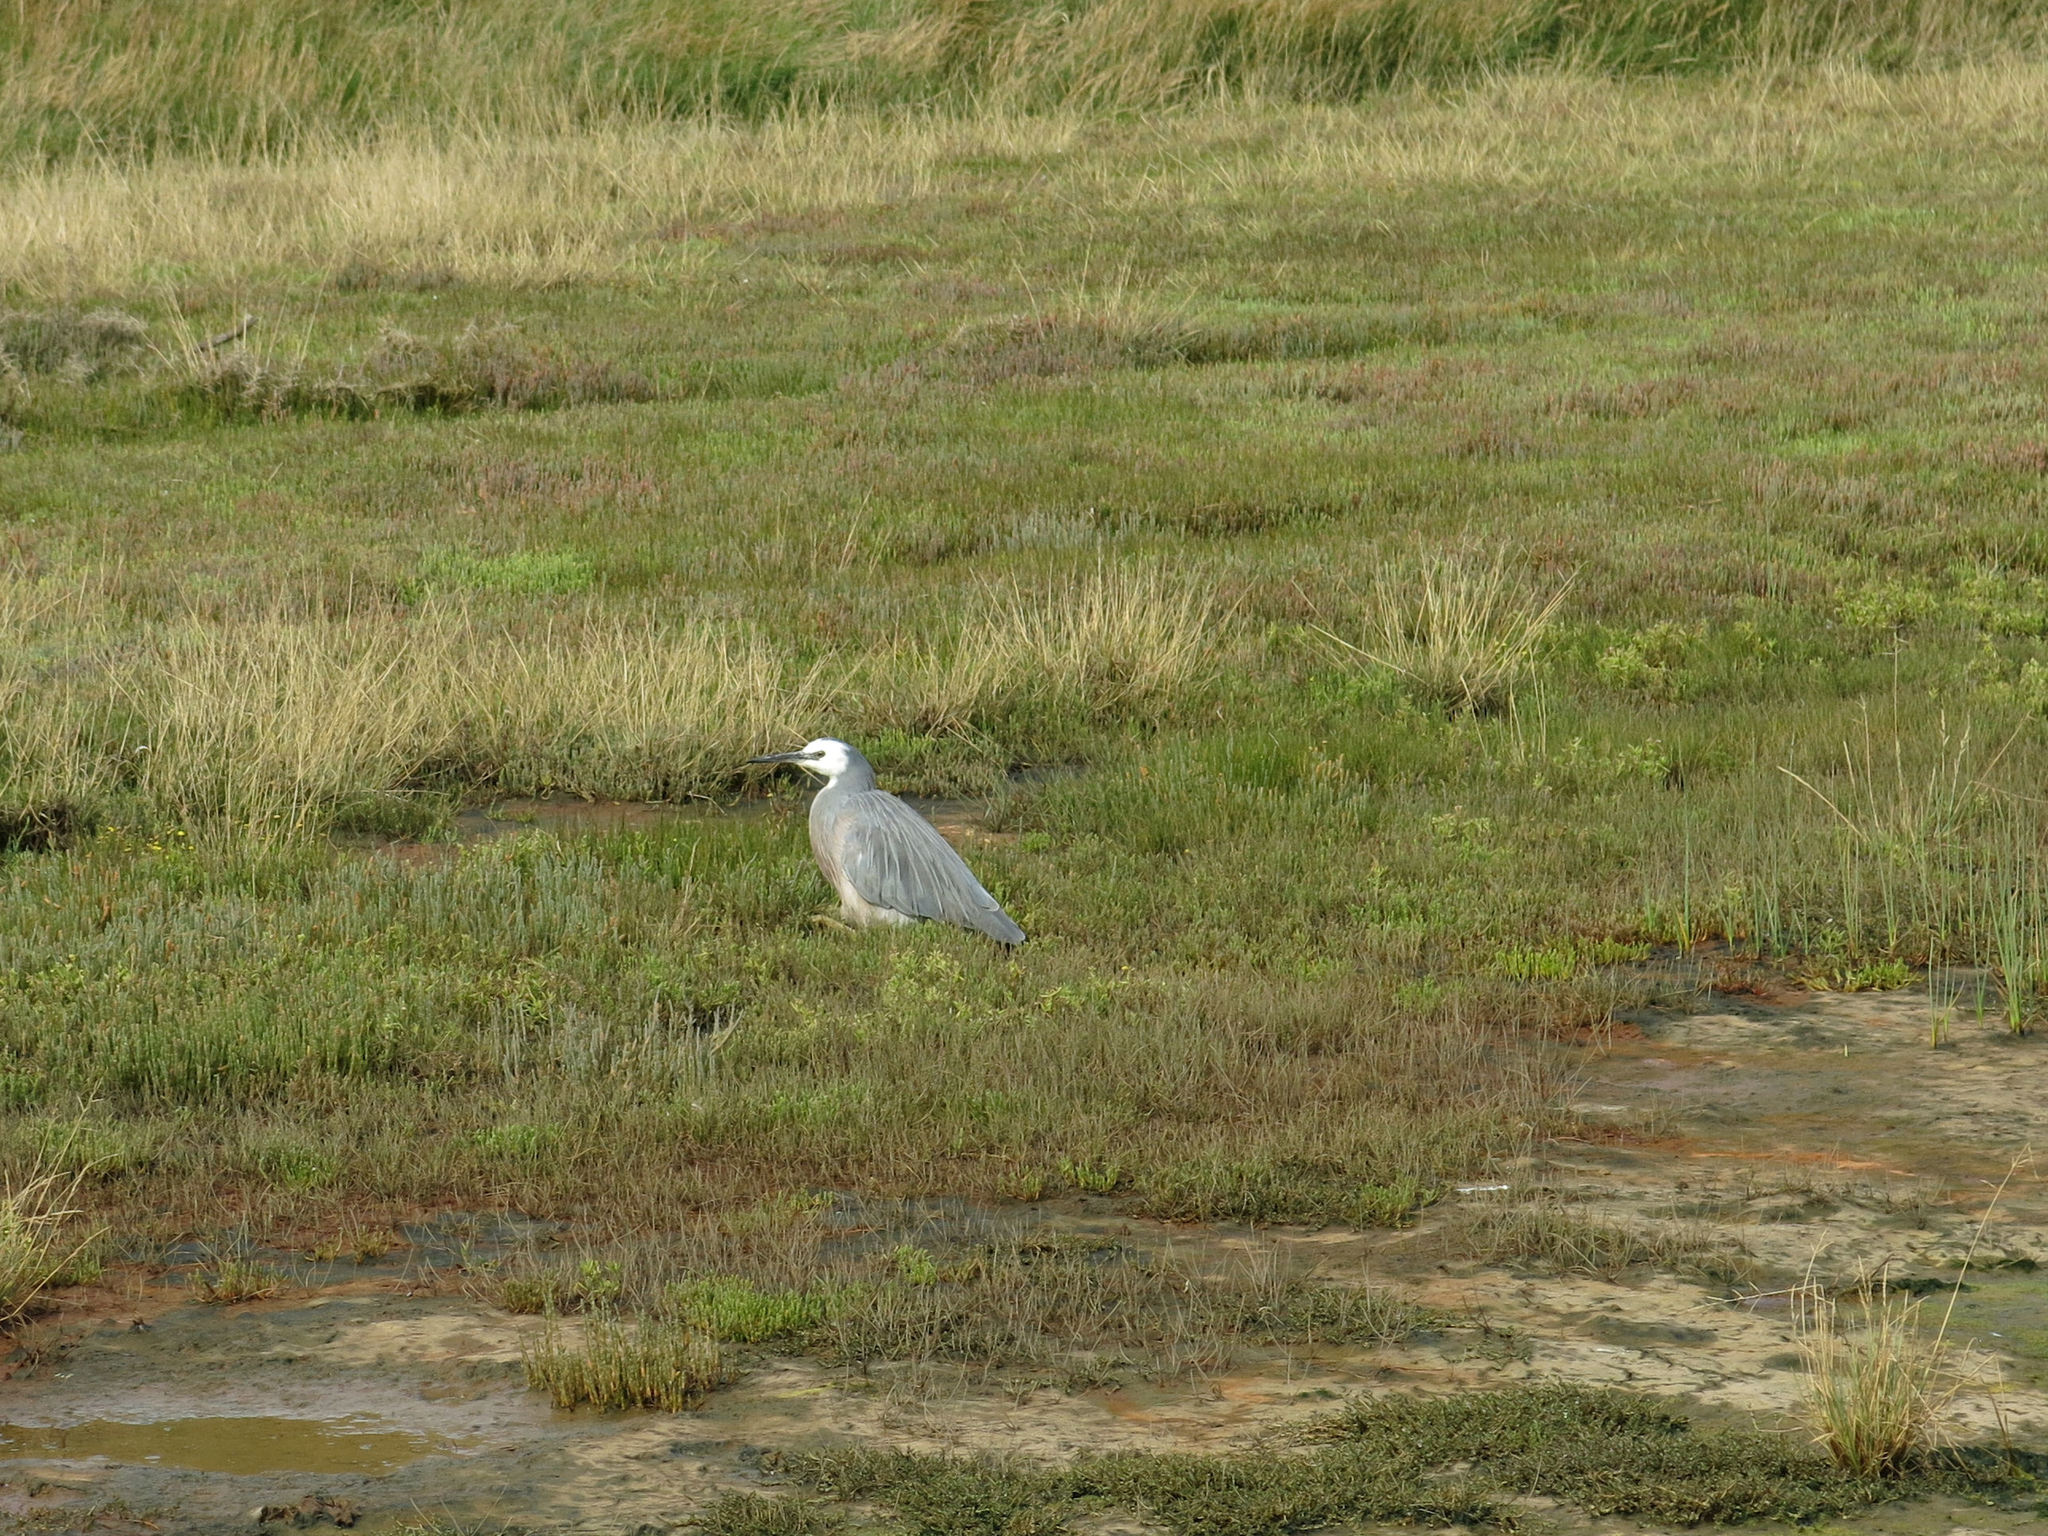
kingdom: Animalia
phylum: Chordata
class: Aves
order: Pelecaniformes
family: Ardeidae
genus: Egretta
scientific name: Egretta novaehollandiae
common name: White-faced heron
